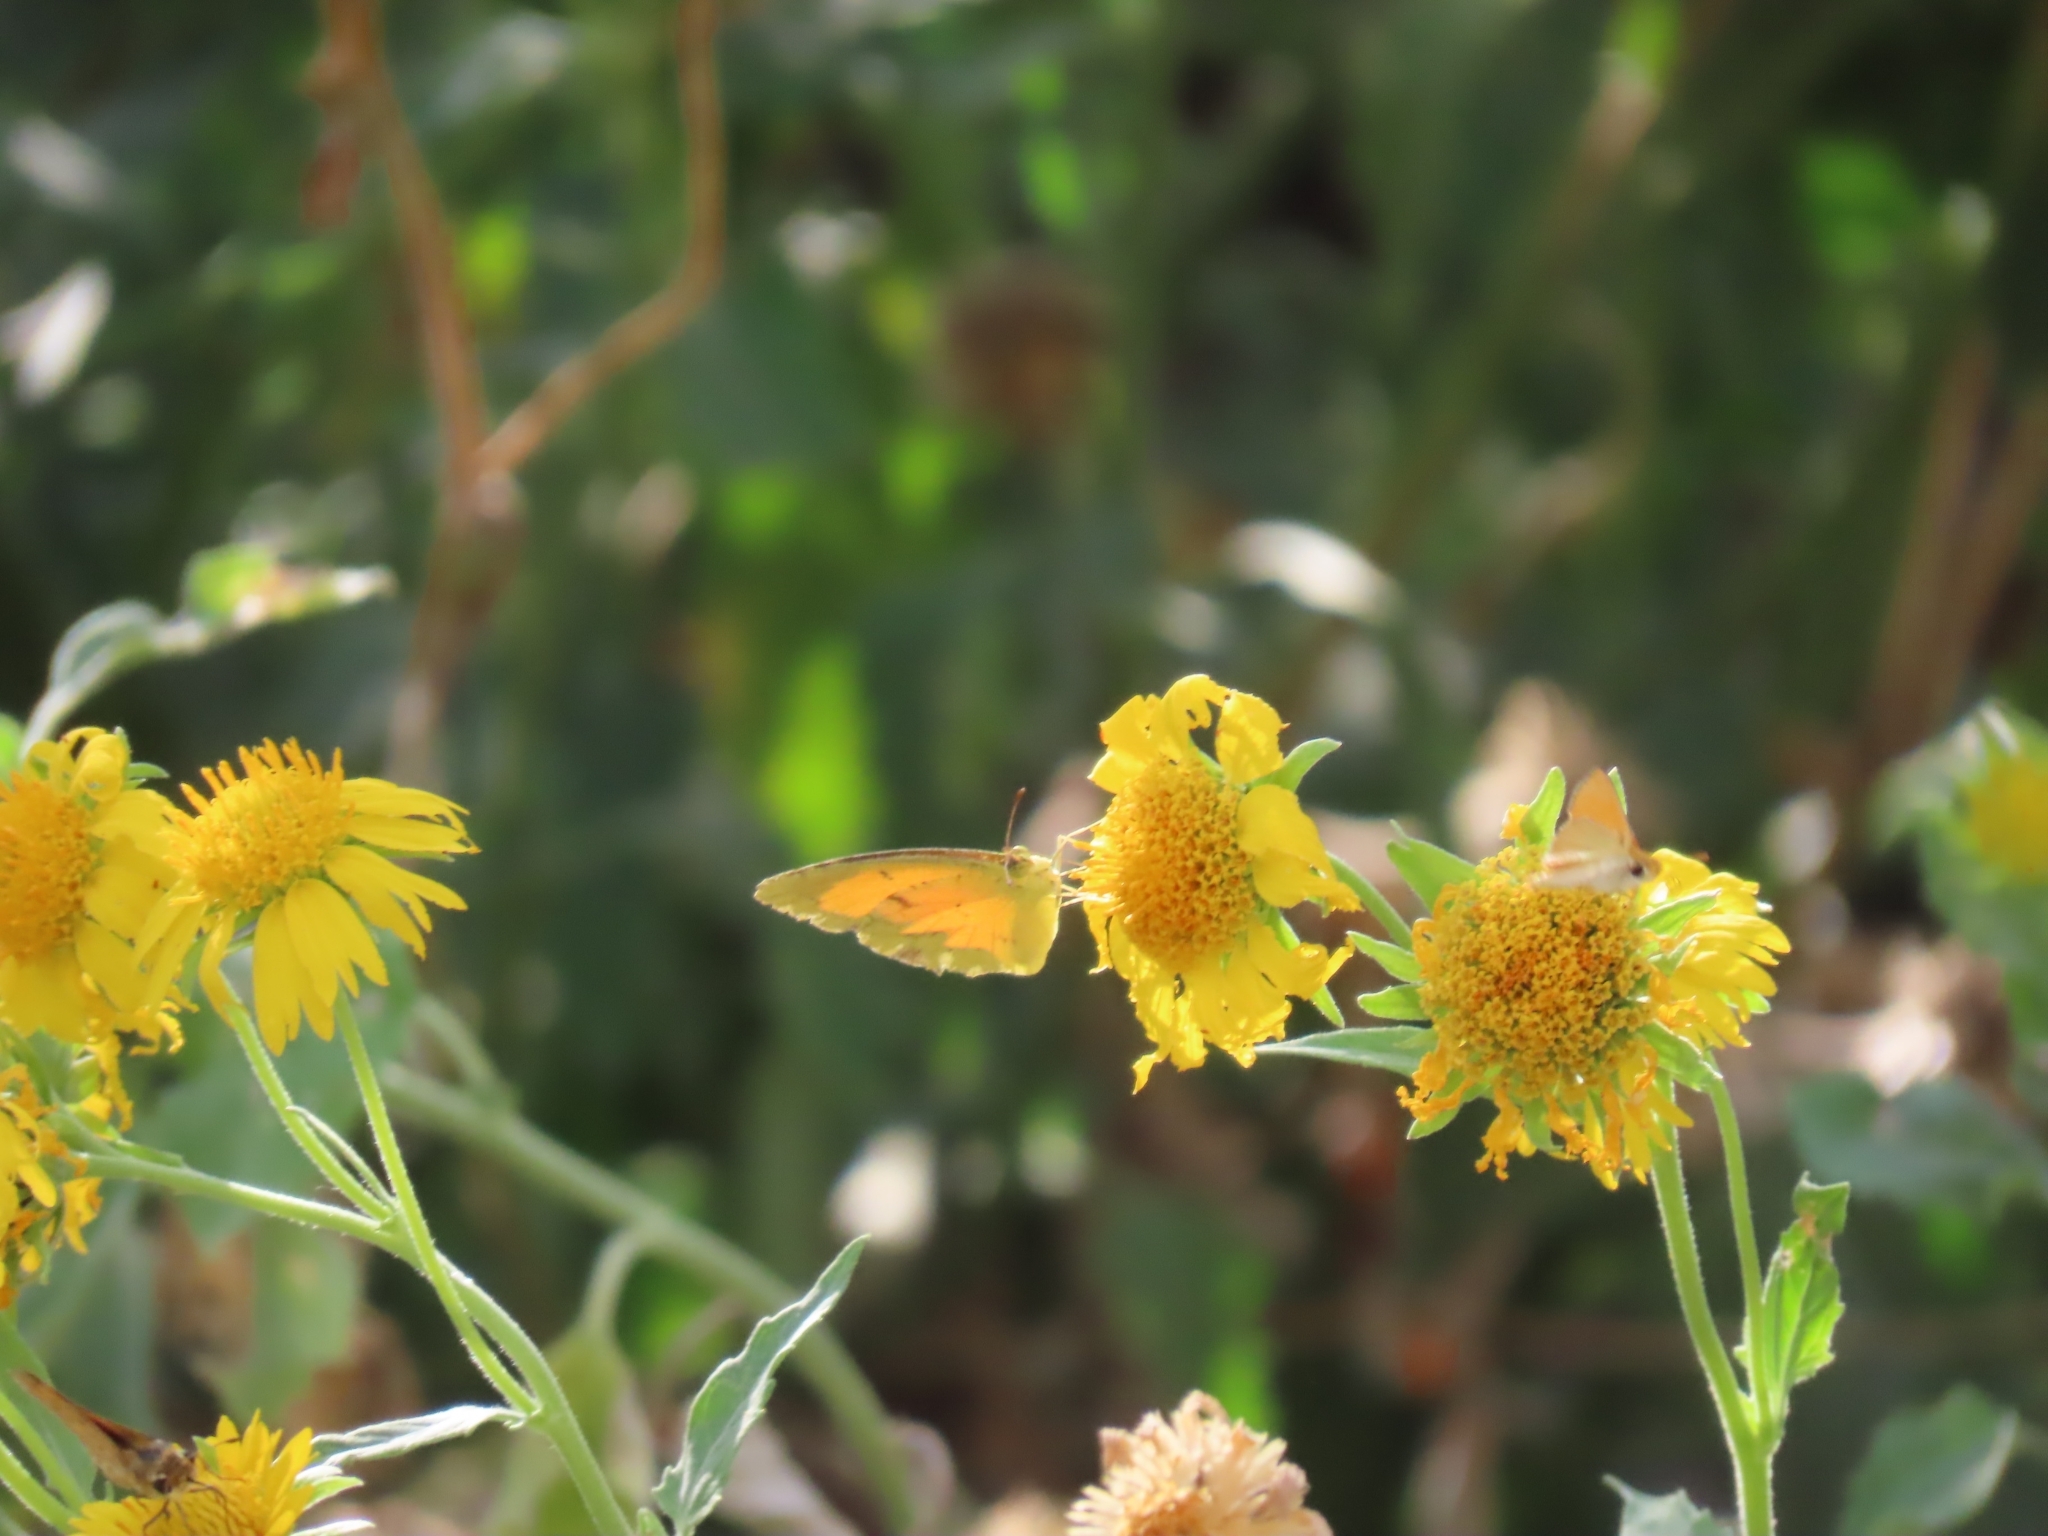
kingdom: Plantae
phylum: Tracheophyta
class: Magnoliopsida
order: Asterales
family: Asteraceae
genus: Verbesina
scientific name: Verbesina encelioides
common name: Golden crownbeard
